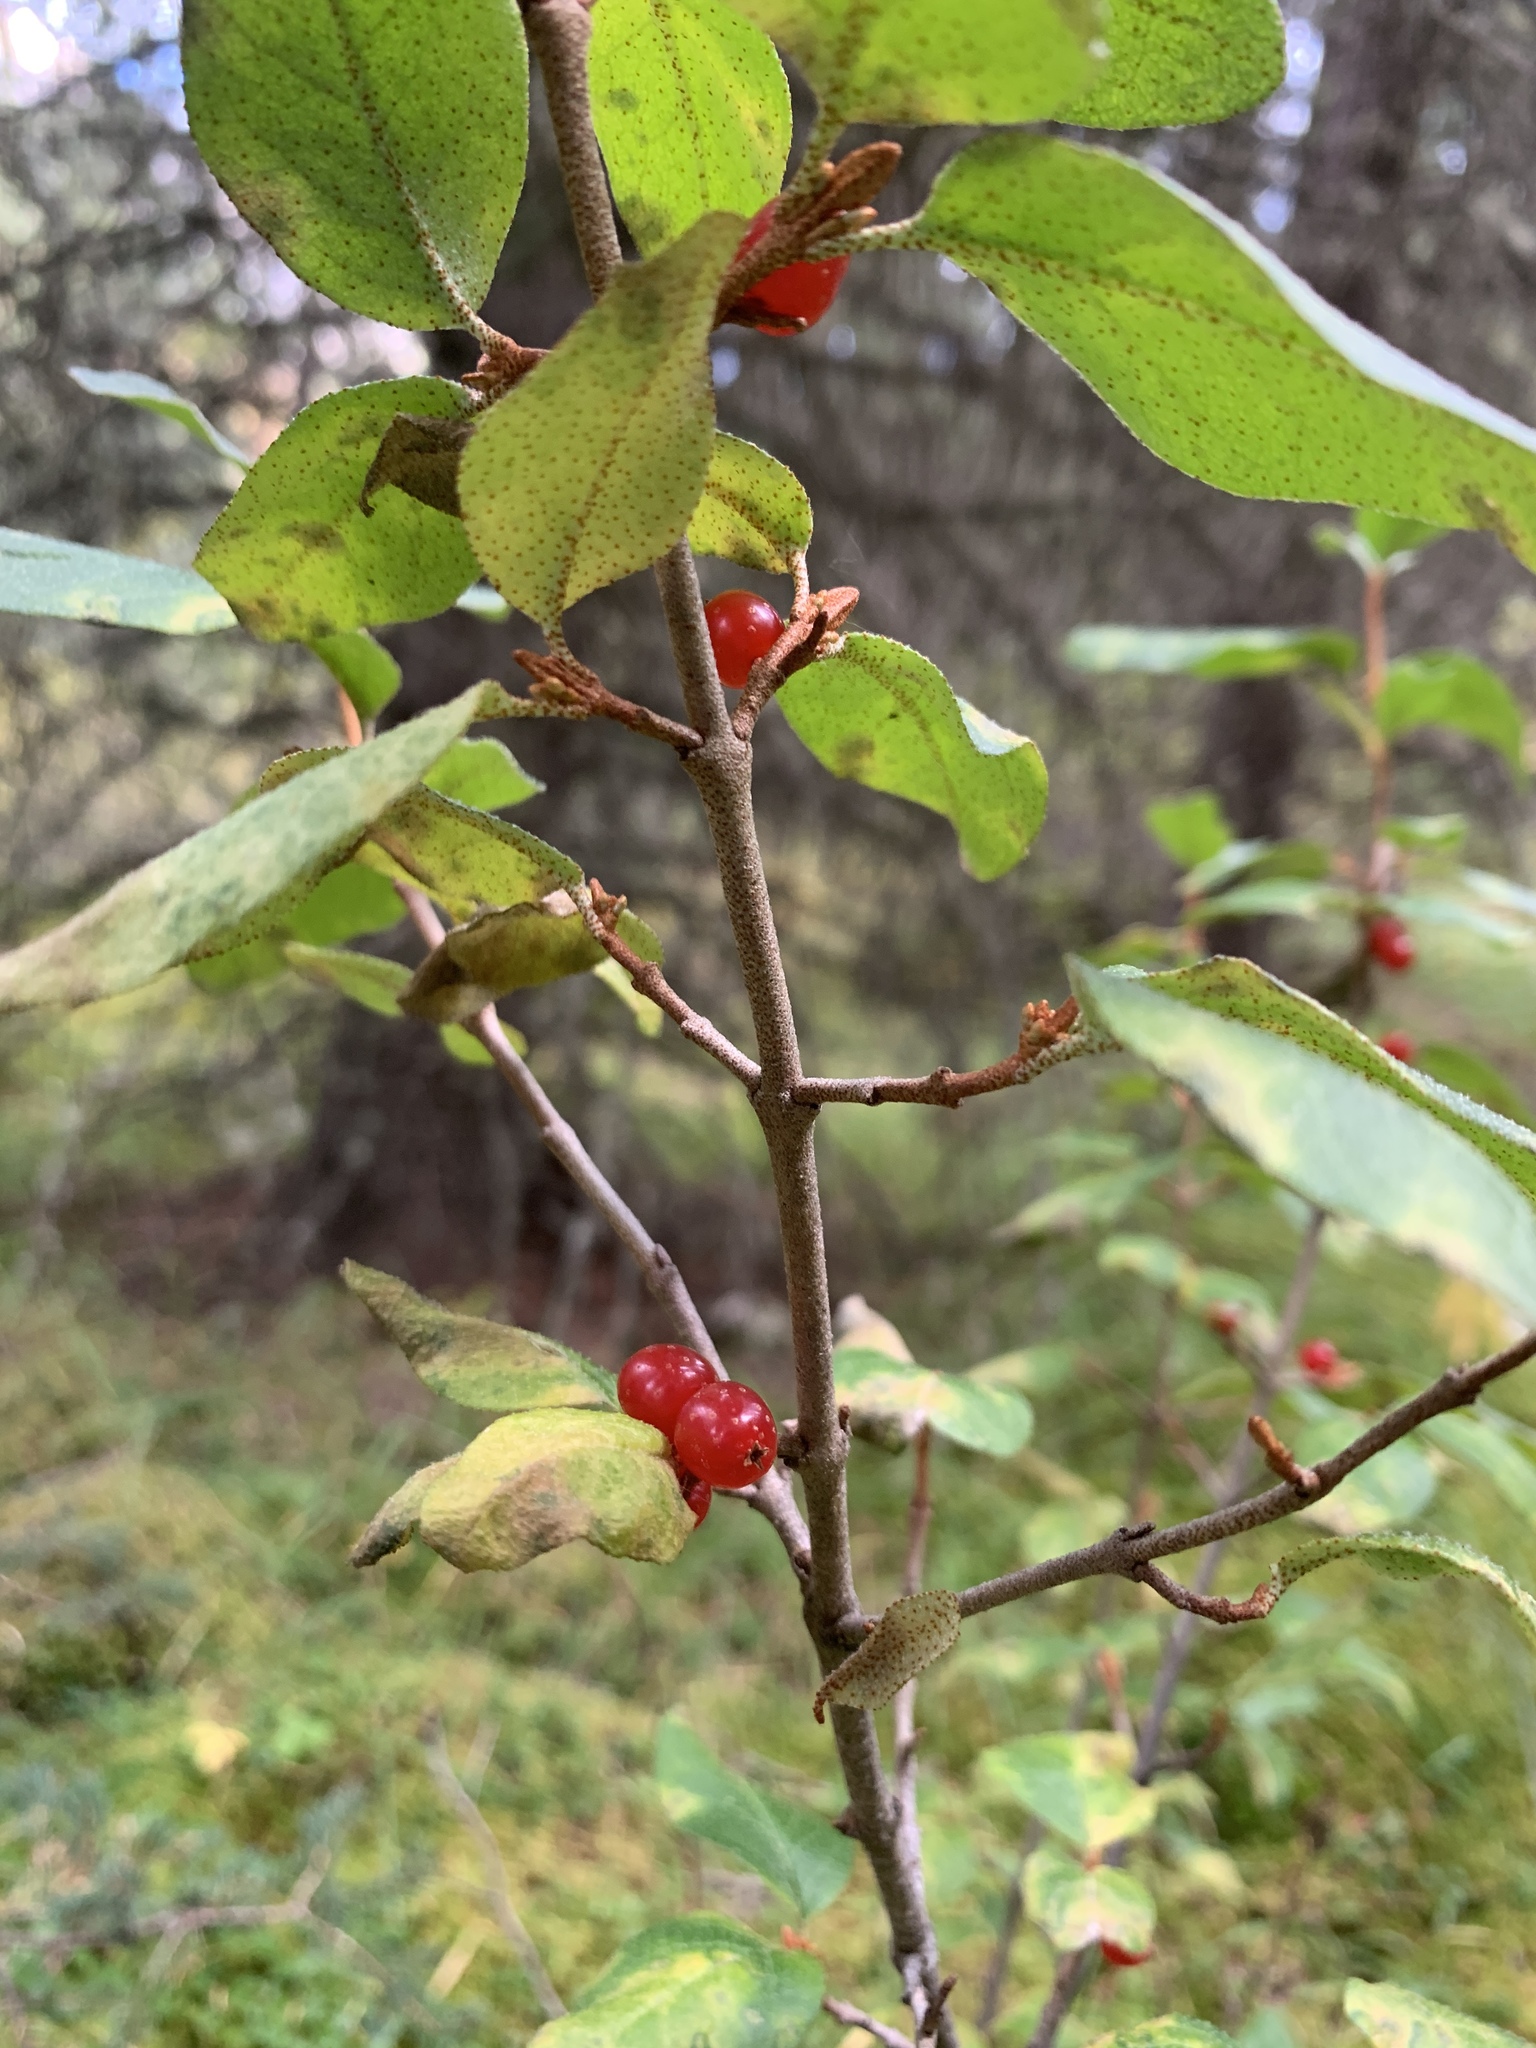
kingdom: Plantae
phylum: Tracheophyta
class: Magnoliopsida
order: Rosales
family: Elaeagnaceae
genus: Shepherdia
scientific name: Shepherdia canadensis
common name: Soapberry
